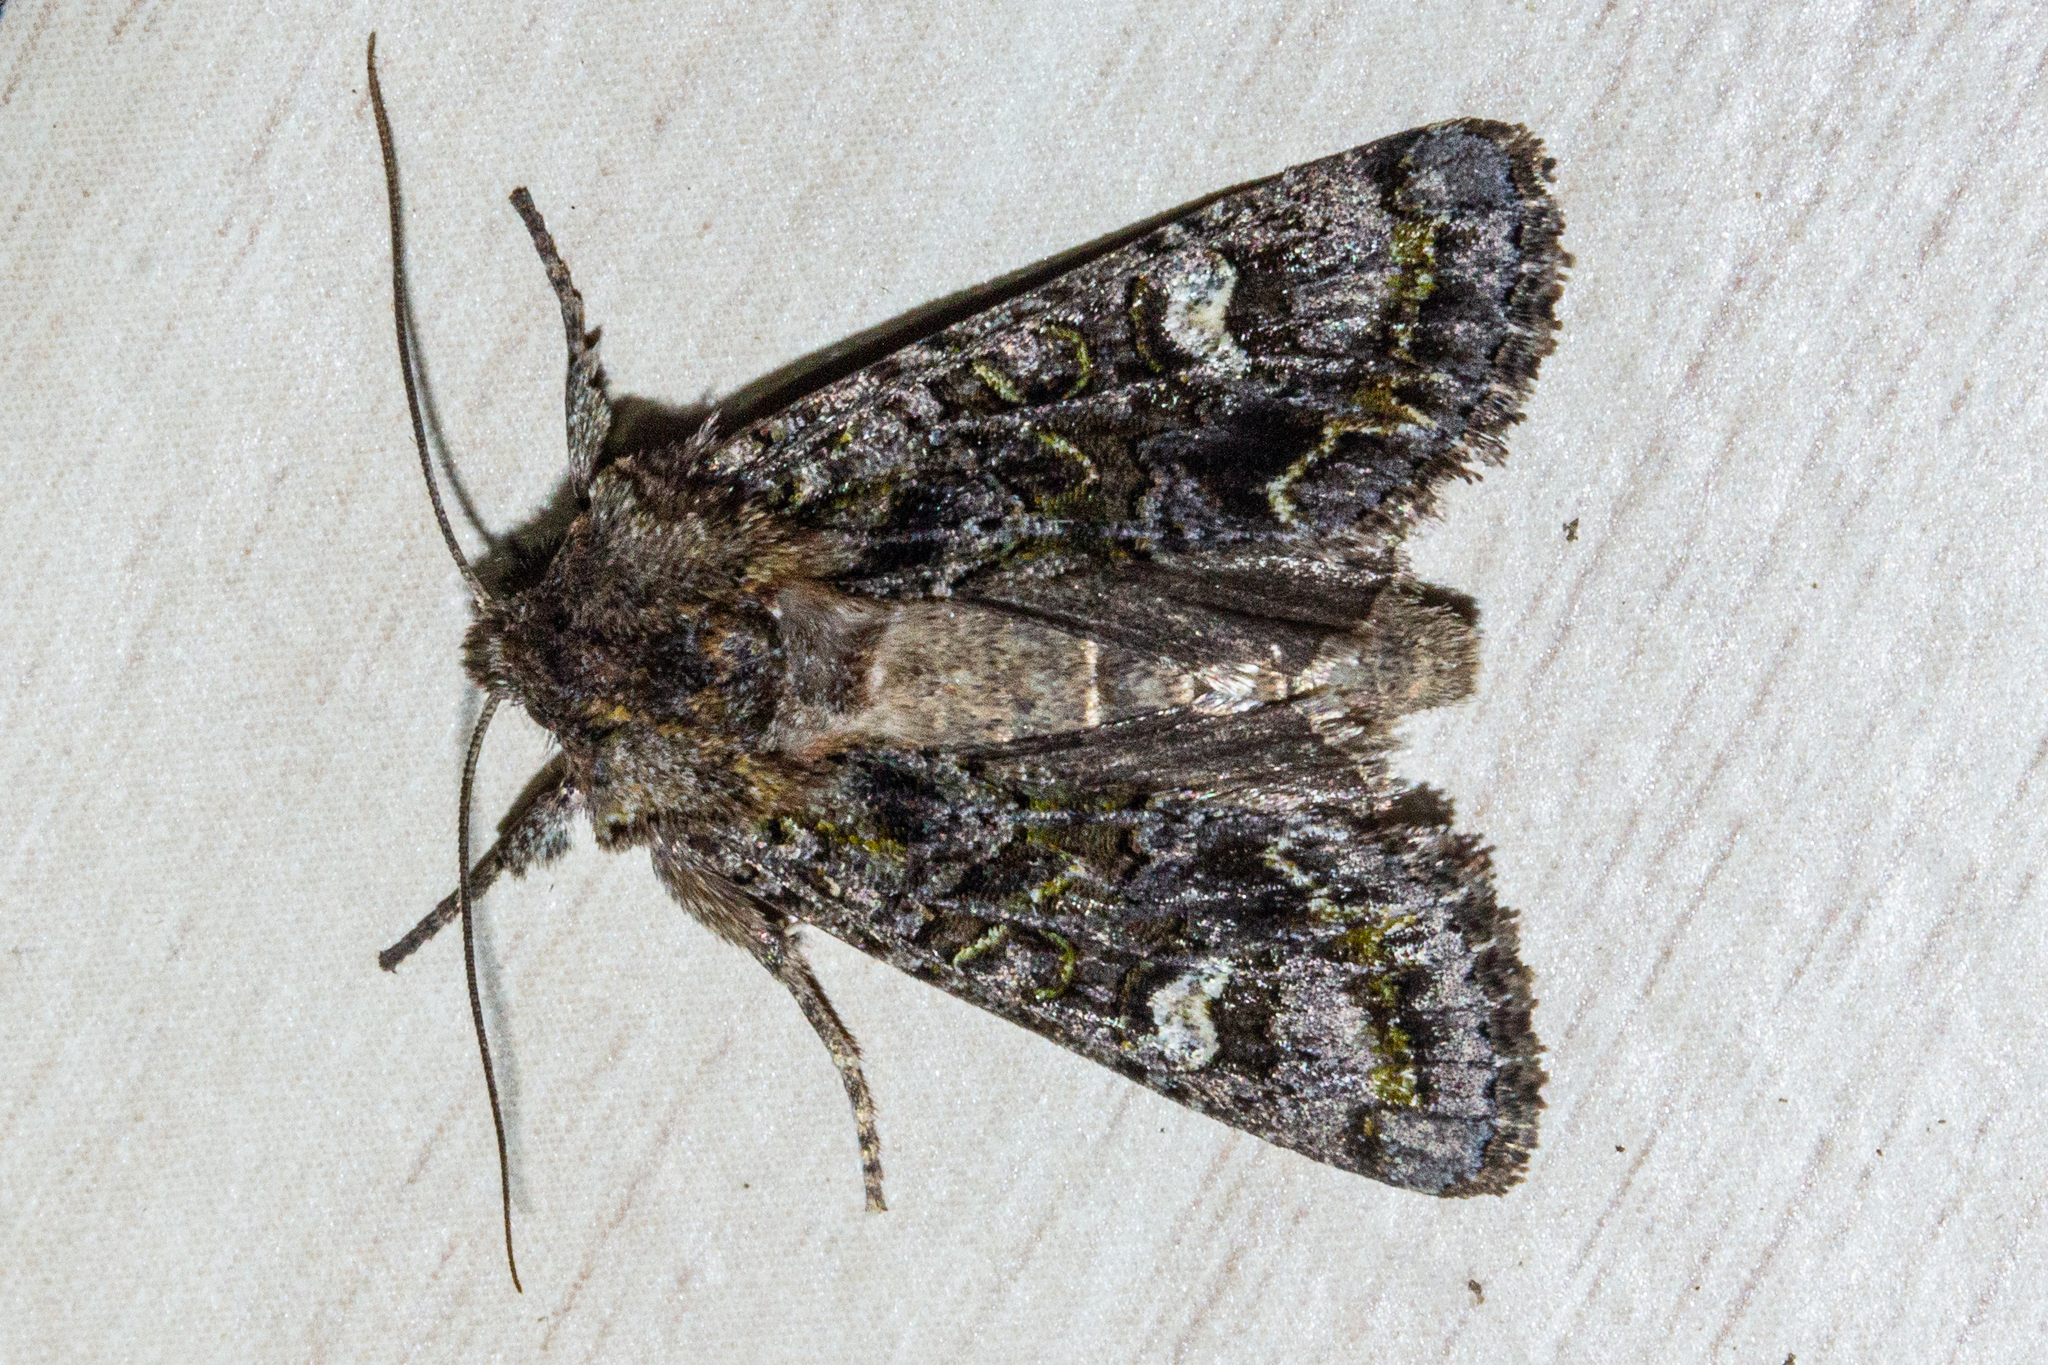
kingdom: Animalia
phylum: Arthropoda
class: Insecta
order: Lepidoptera
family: Noctuidae
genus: Ichneutica
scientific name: Ichneutica insignis
